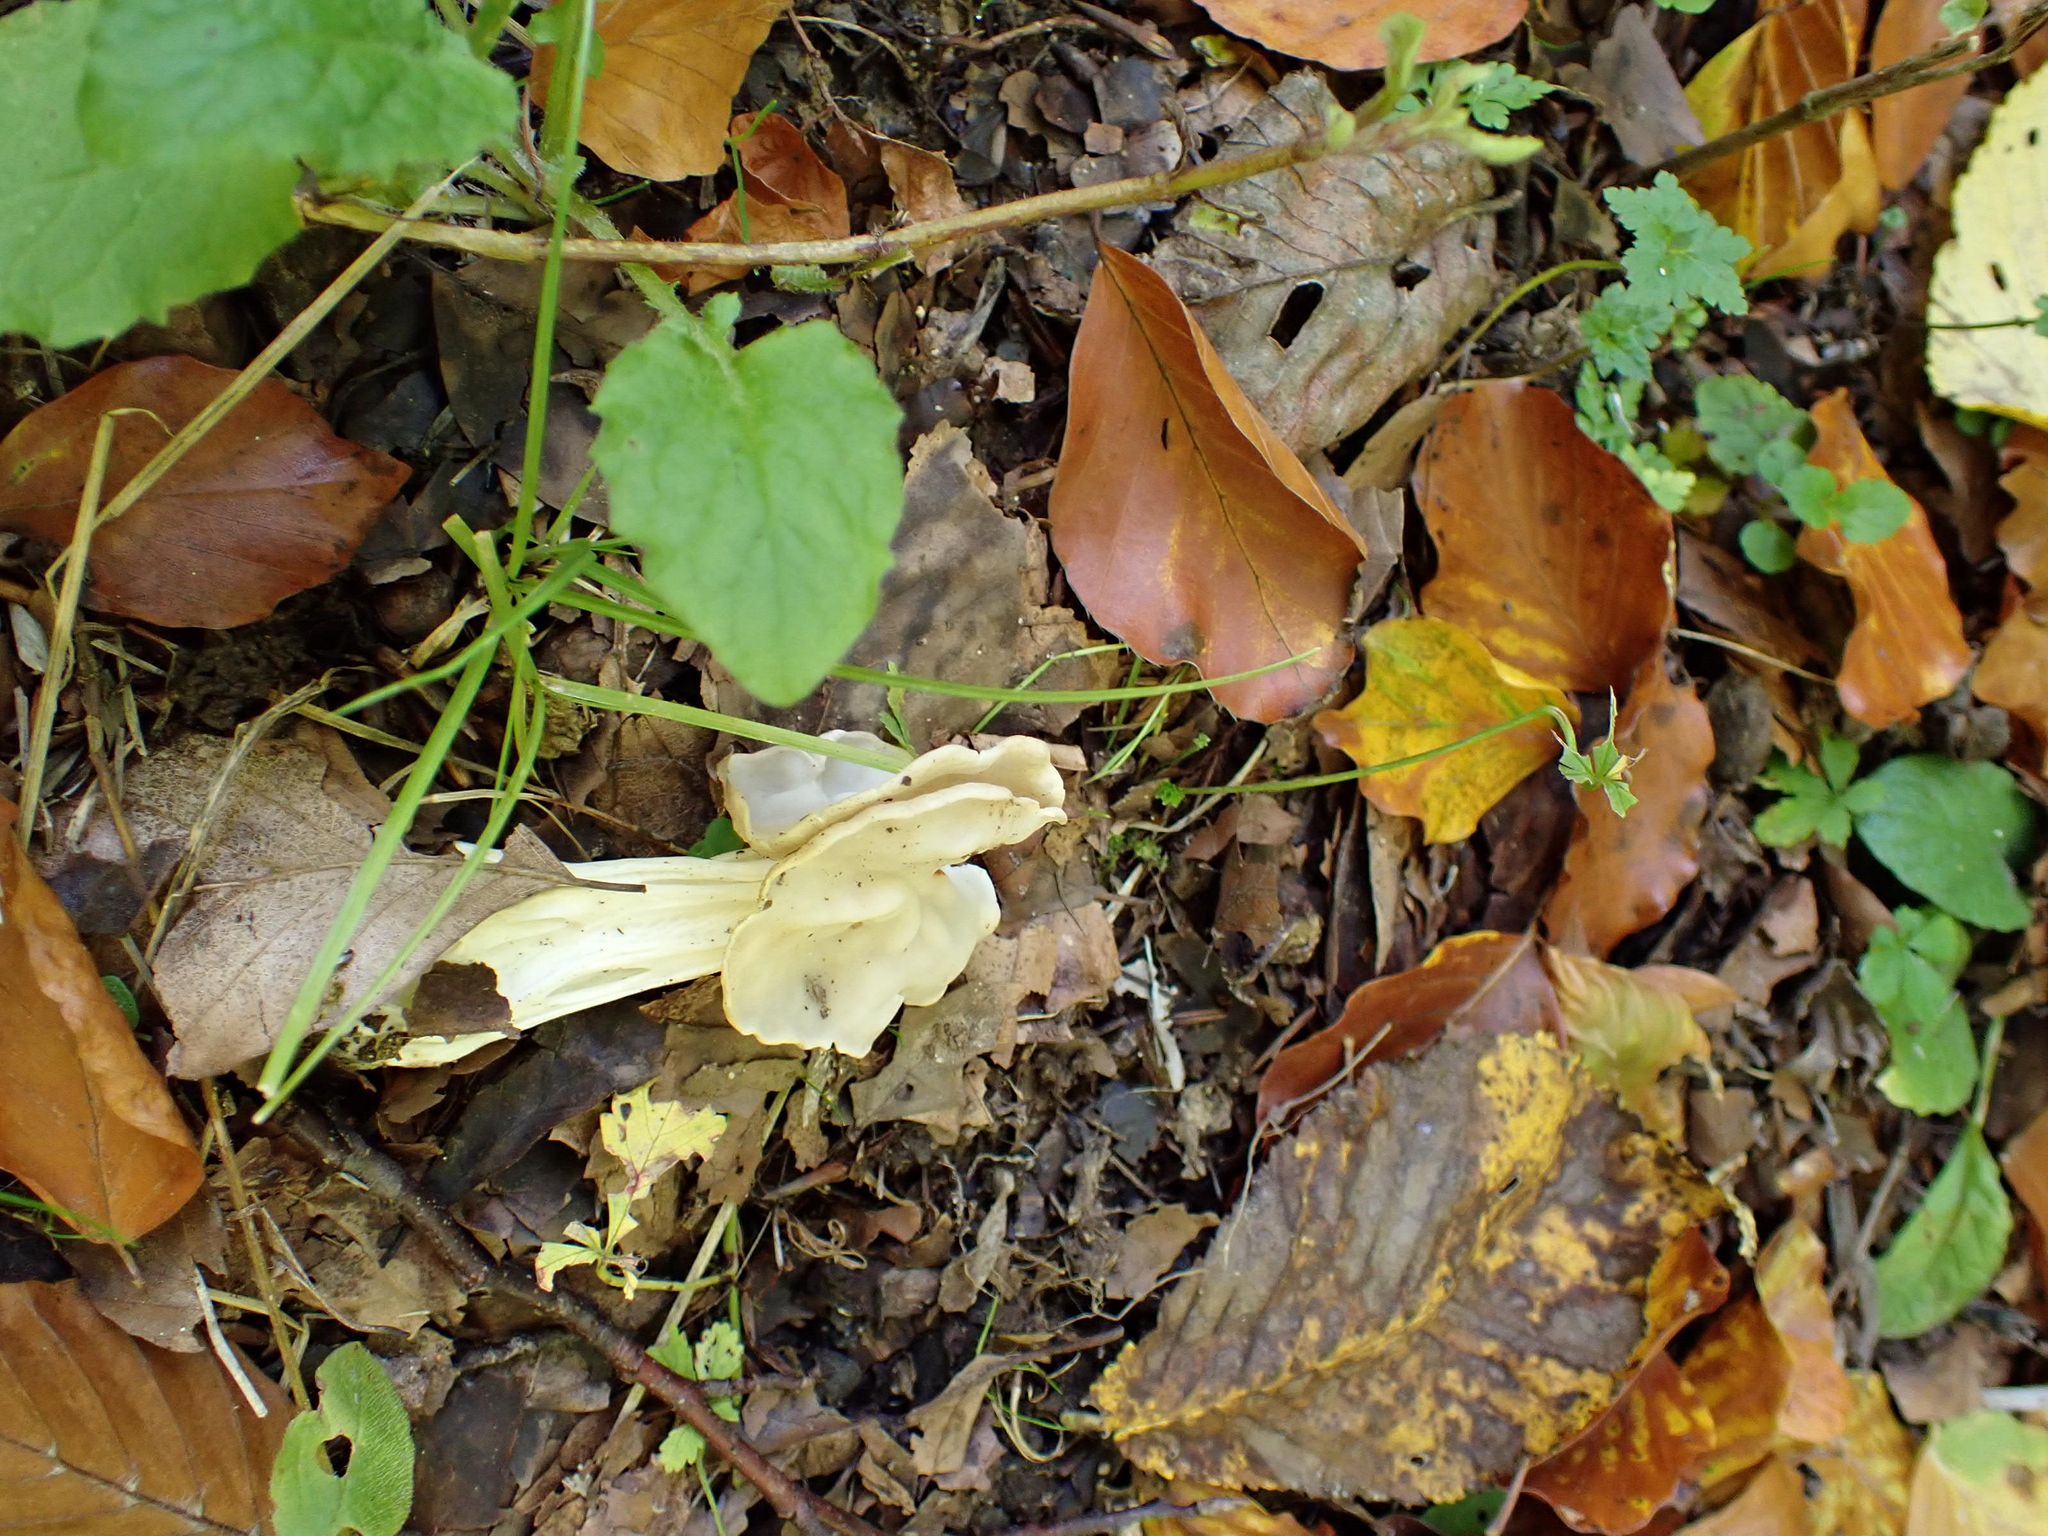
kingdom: Fungi
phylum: Ascomycota
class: Pezizomycetes
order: Pezizales
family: Helvellaceae
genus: Helvella
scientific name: Helvella crispa
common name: White saddle
